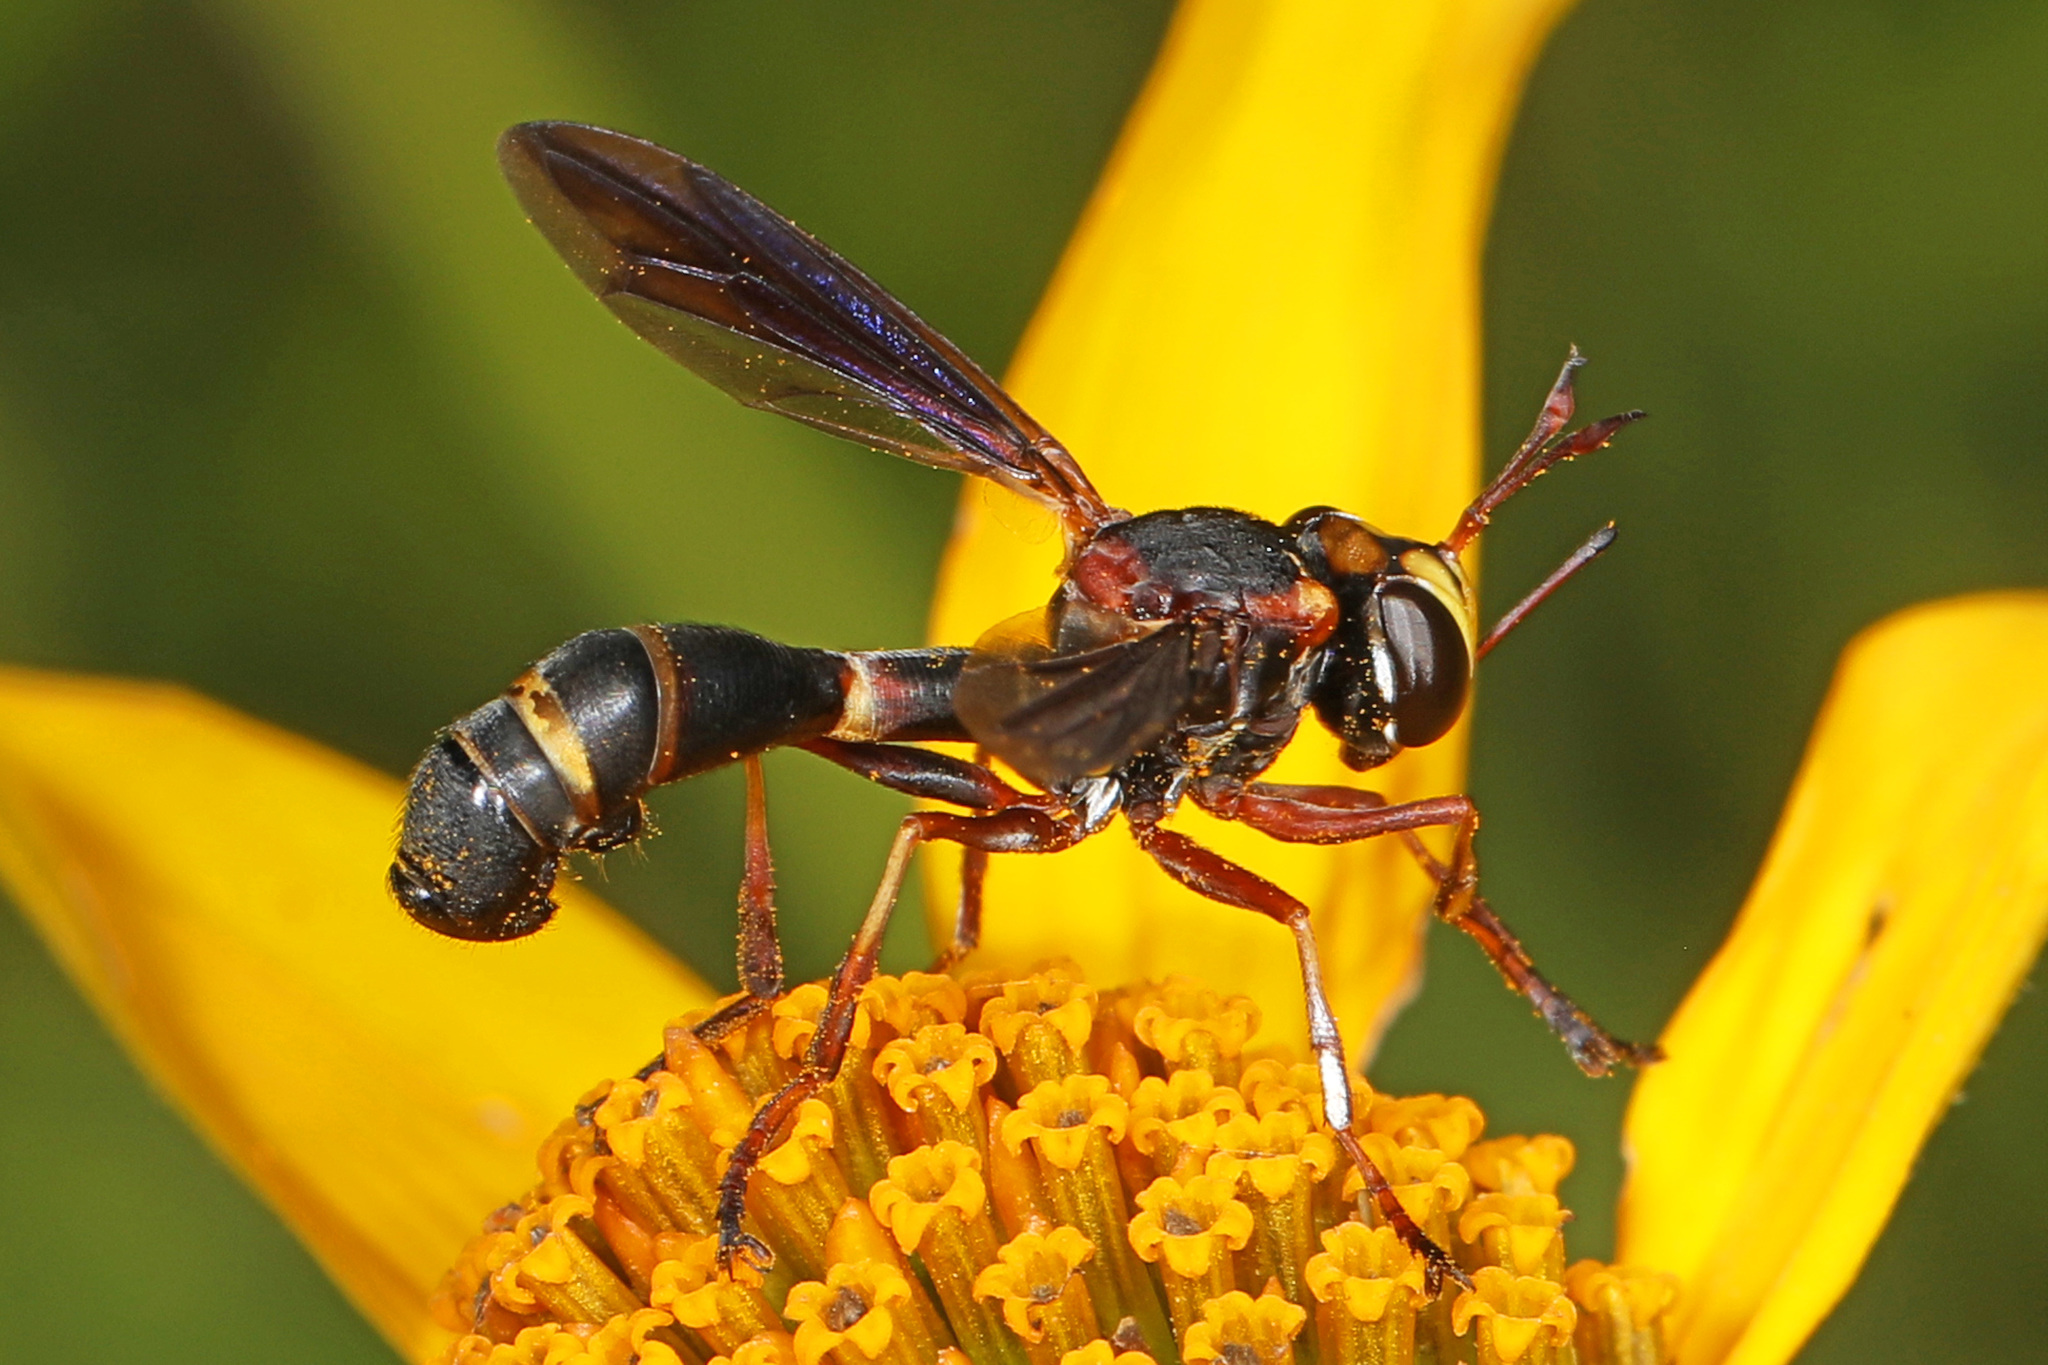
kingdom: Animalia
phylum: Arthropoda
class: Insecta
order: Diptera
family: Conopidae
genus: Physocephala
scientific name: Physocephala sagittaria
